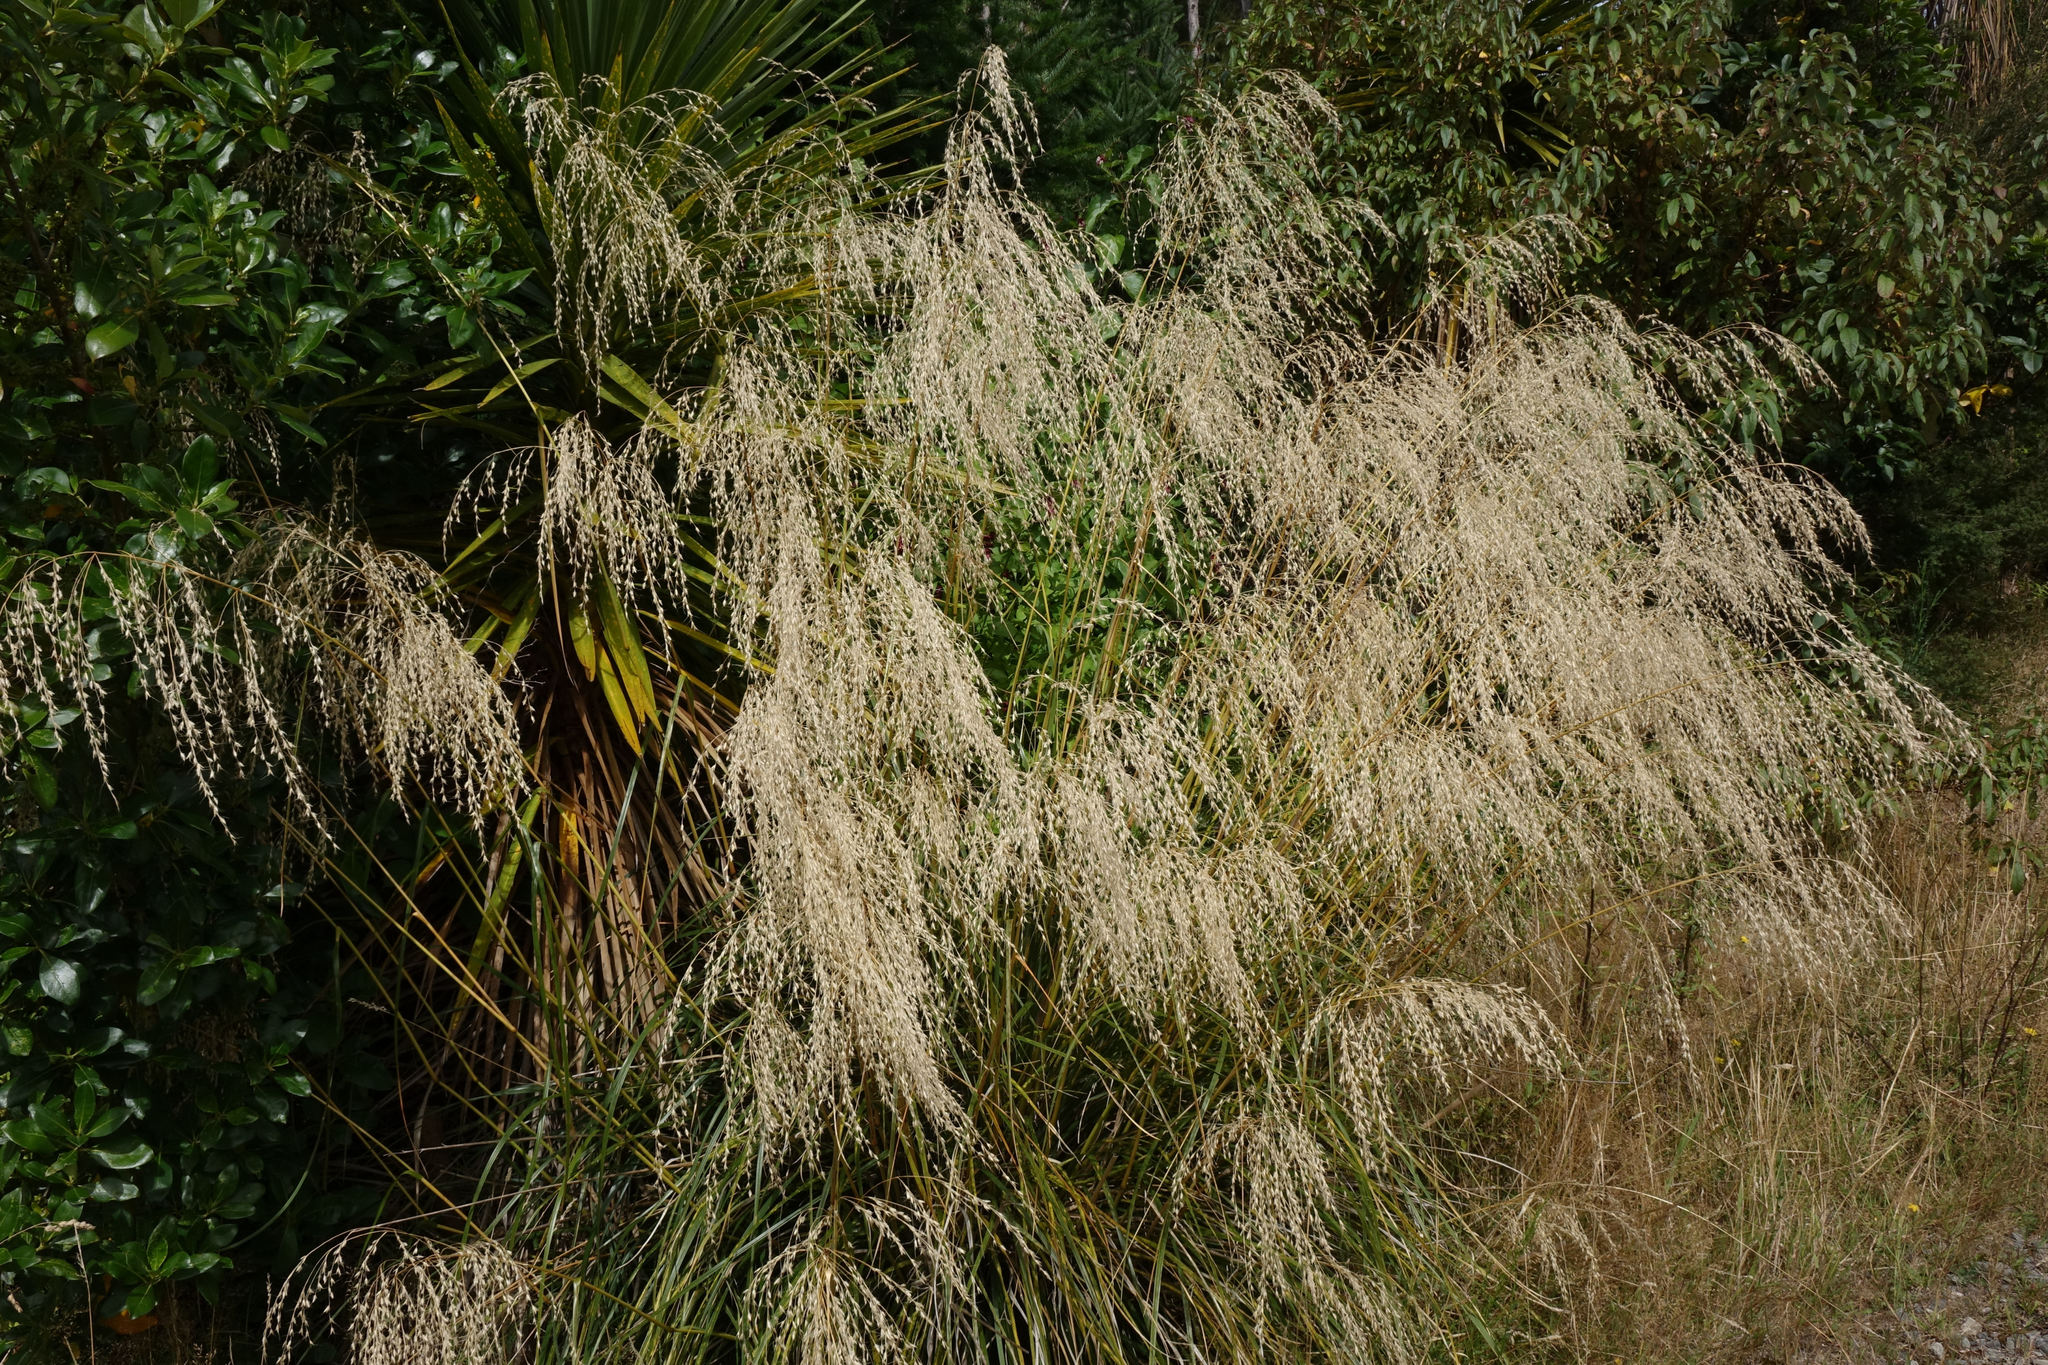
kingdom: Plantae
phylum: Tracheophyta
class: Liliopsida
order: Poales
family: Poaceae
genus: Chionochloa
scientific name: Chionochloa conspicua
